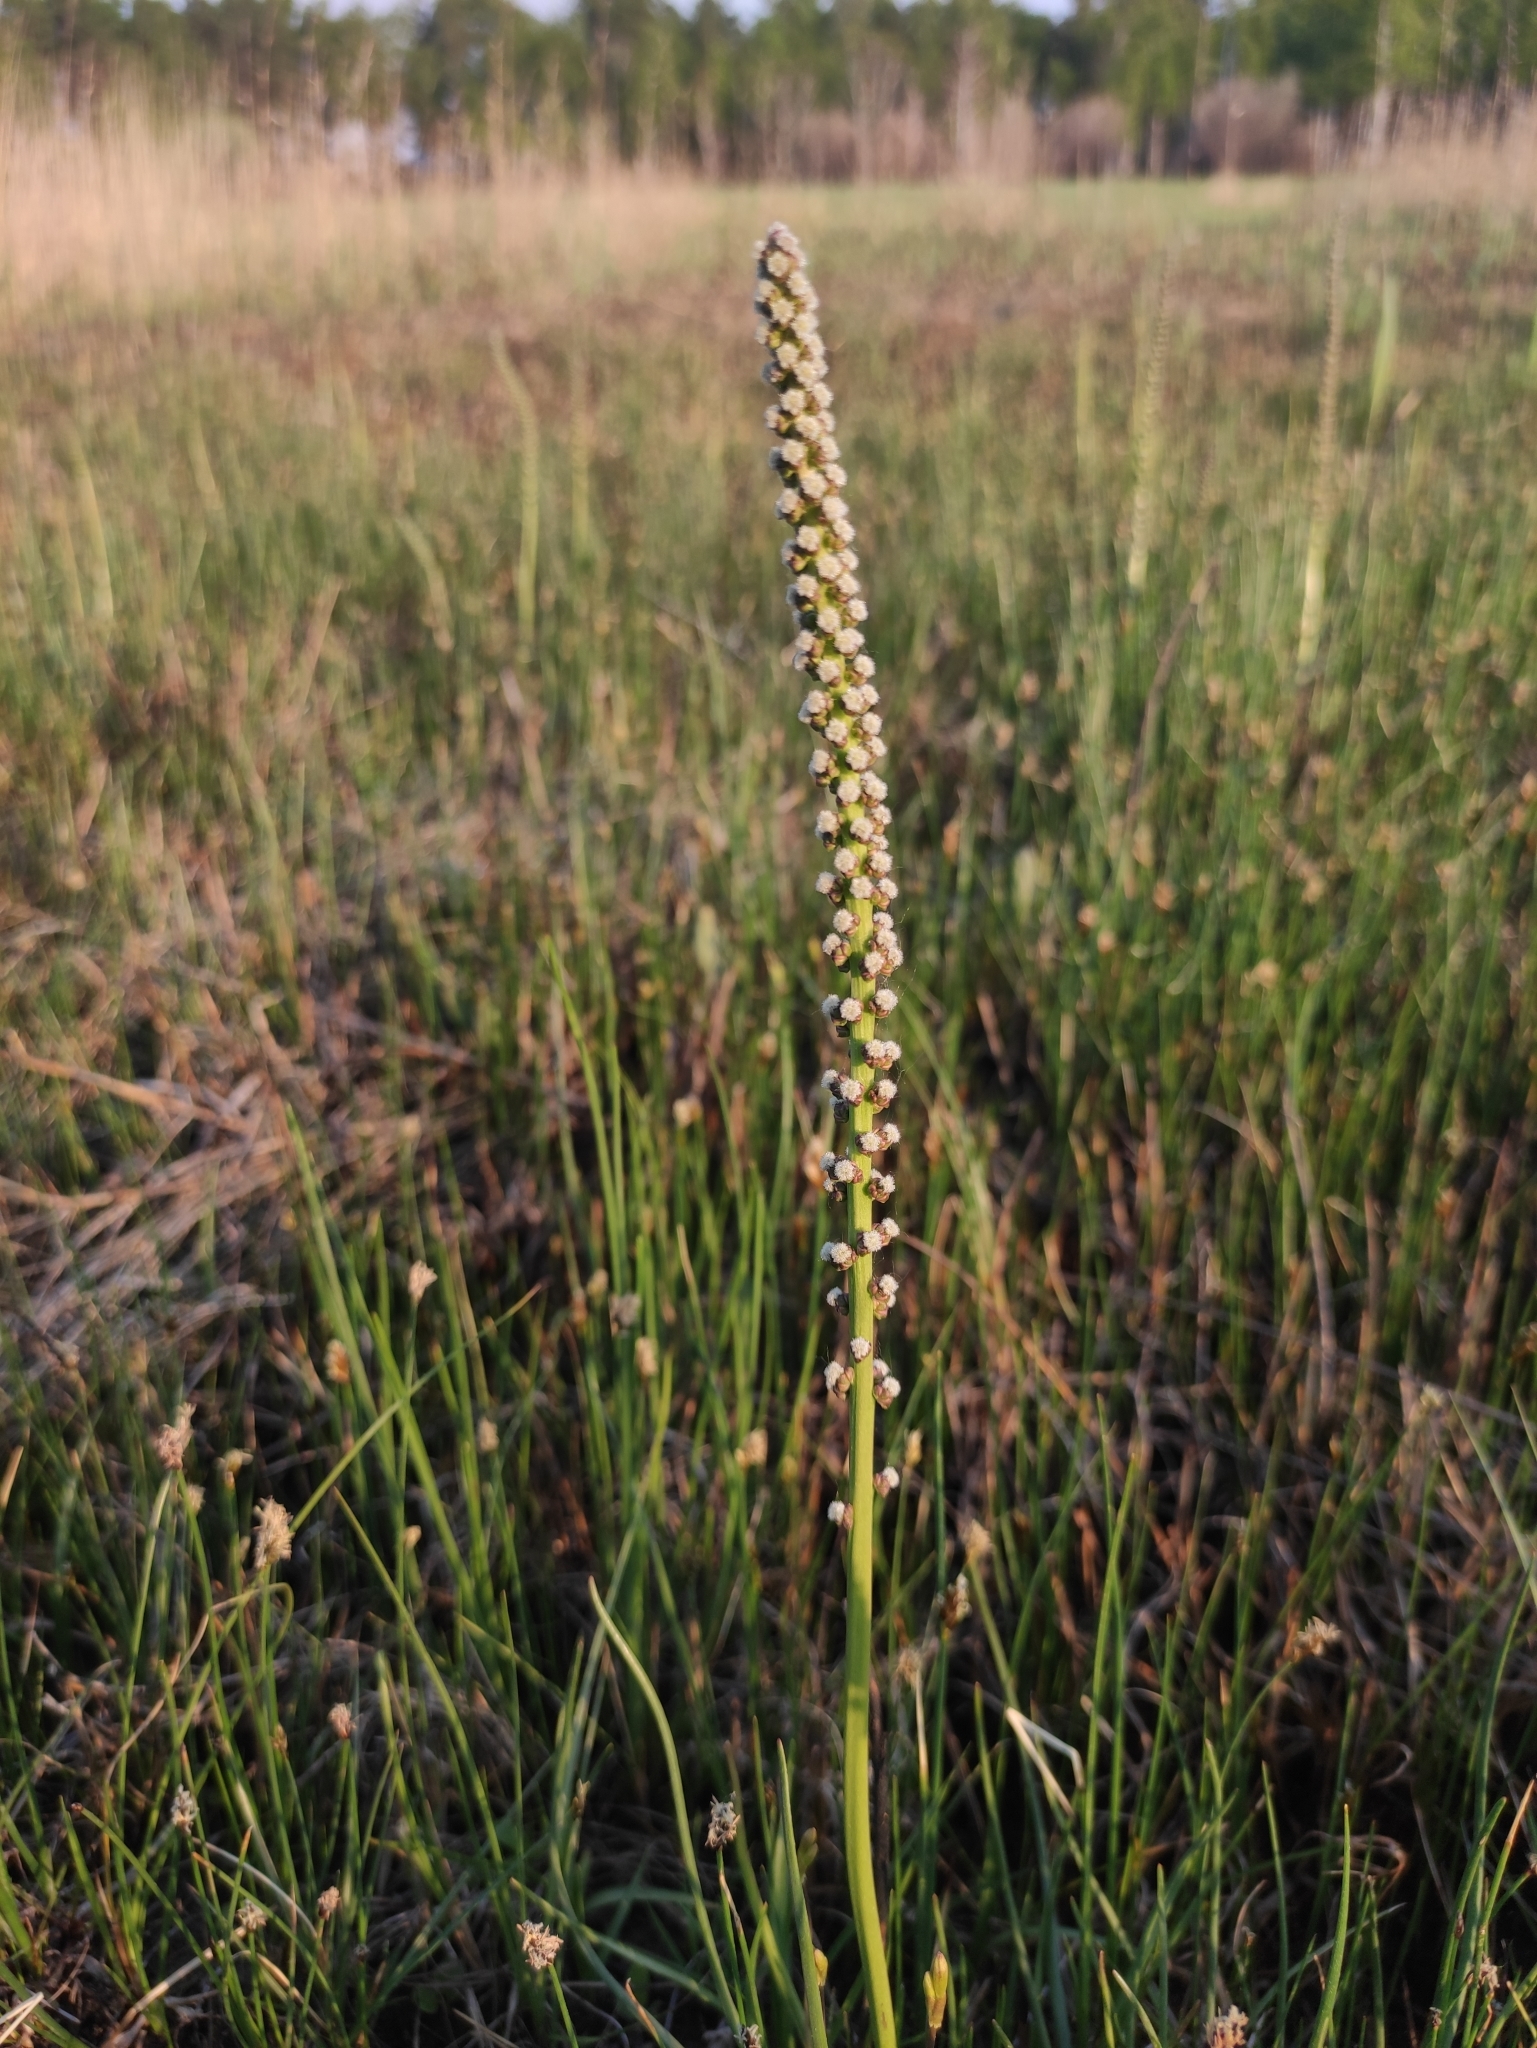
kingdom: Plantae
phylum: Tracheophyta
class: Liliopsida
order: Alismatales
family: Juncaginaceae
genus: Triglochin
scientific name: Triglochin maritima
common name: Sea arrowgrass
